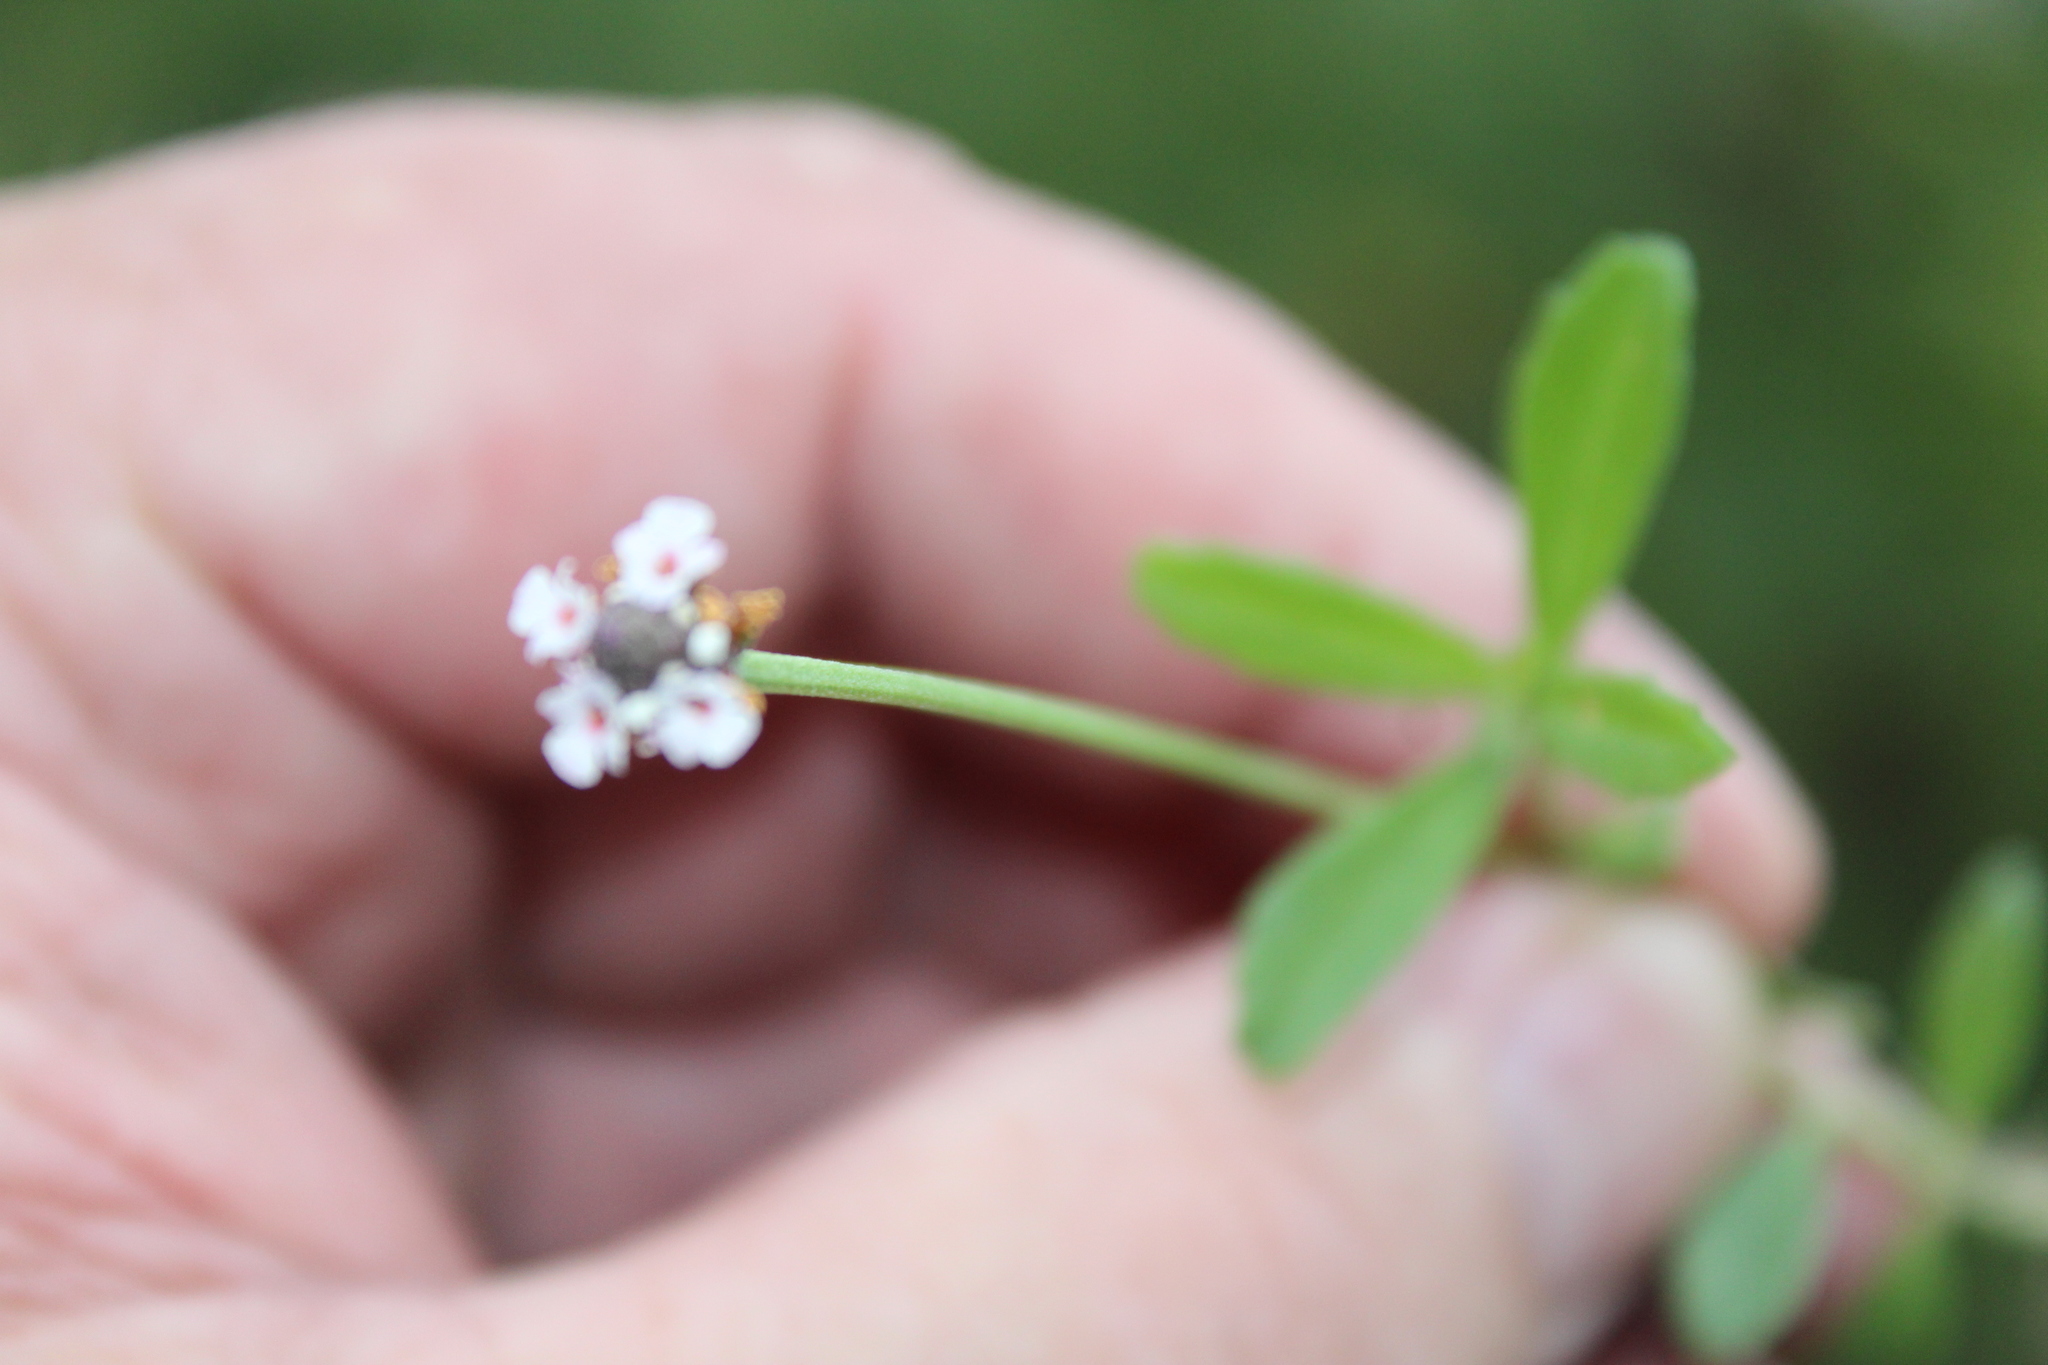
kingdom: Plantae
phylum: Tracheophyta
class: Magnoliopsida
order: Lamiales
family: Verbenaceae
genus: Phyla
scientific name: Phyla nodiflora
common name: Frogfruit
